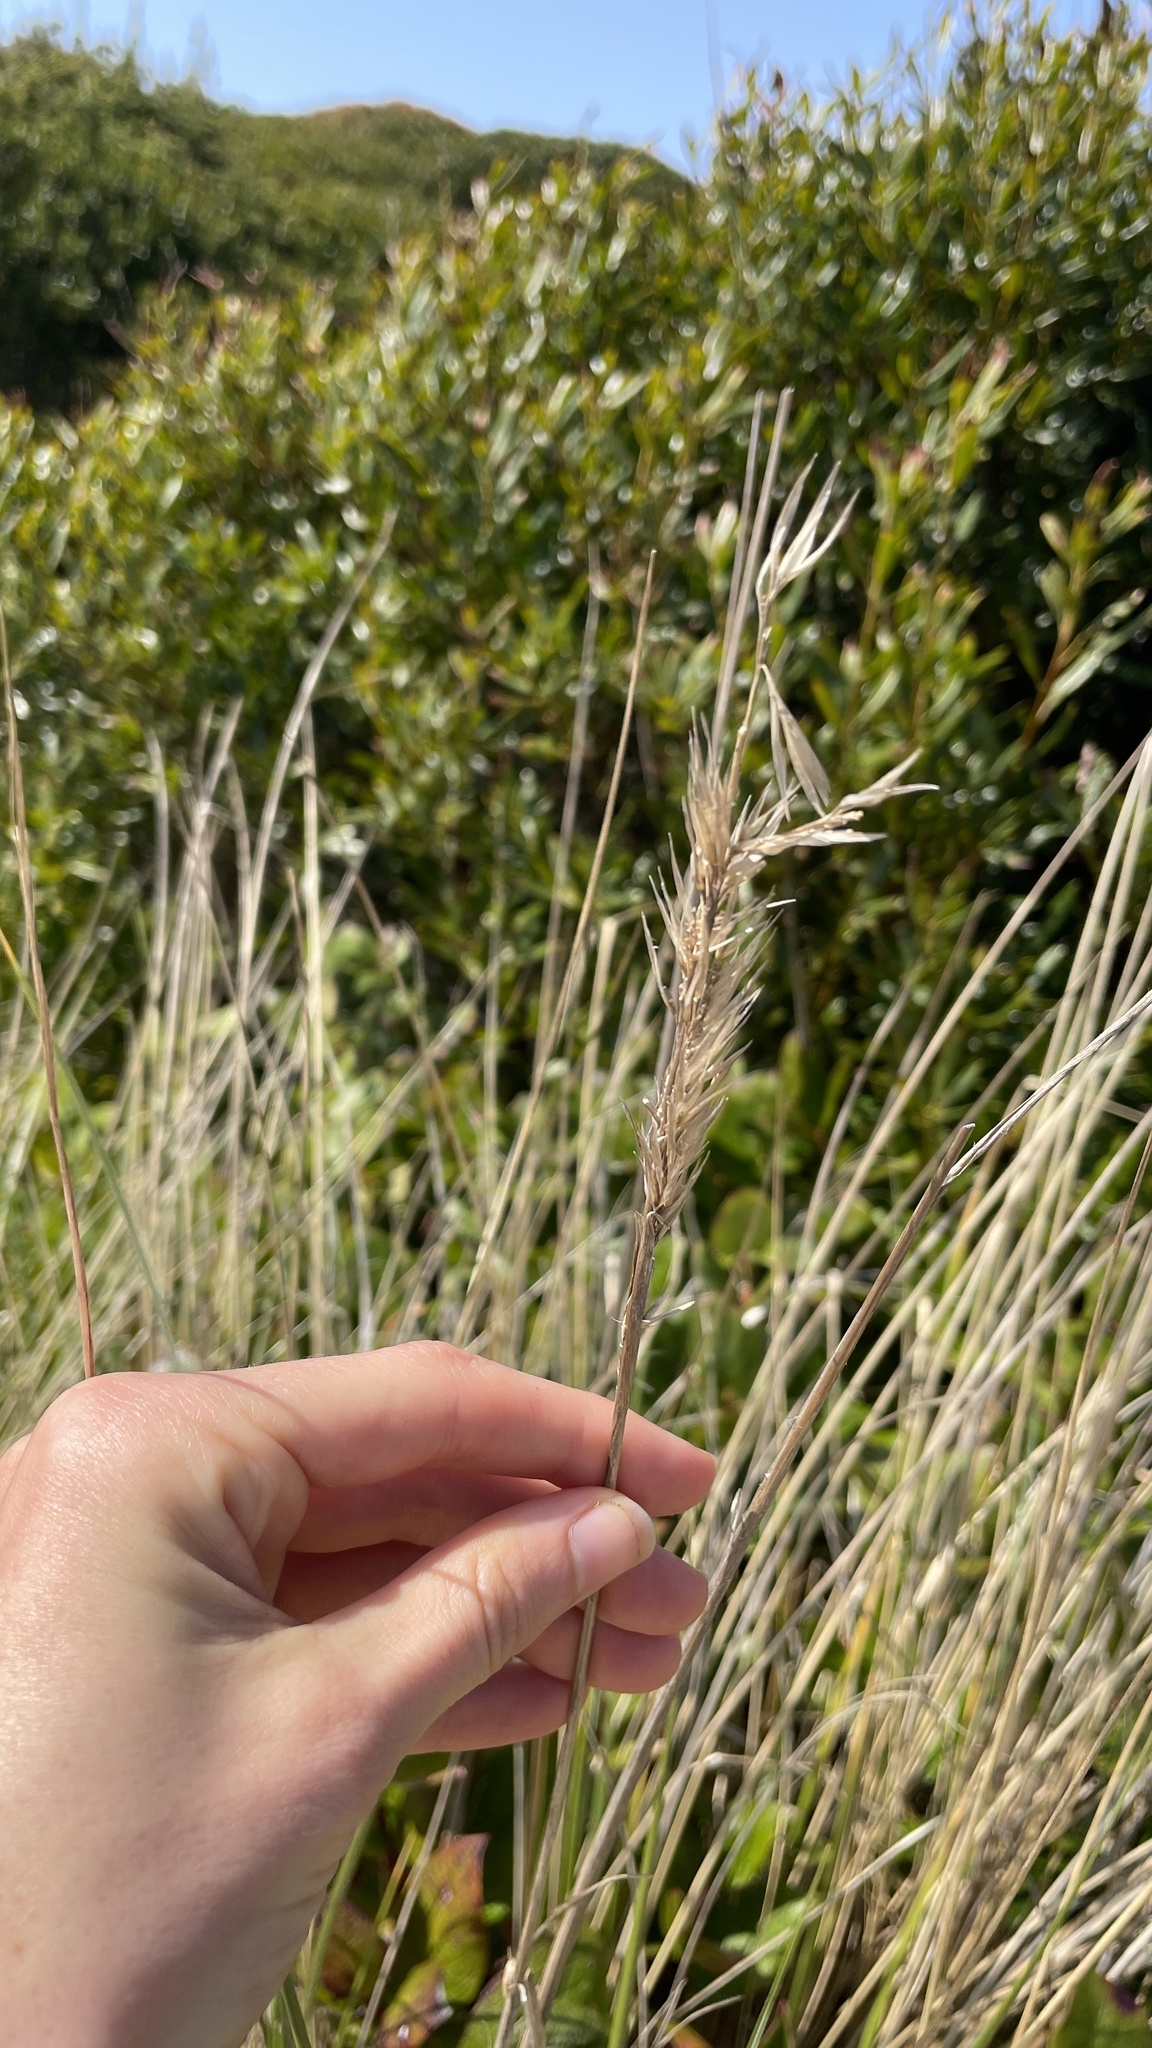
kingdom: Plantae
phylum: Tracheophyta
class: Liliopsida
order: Poales
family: Poaceae
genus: Calamagrostis
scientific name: Calamagrostis arenaria
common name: European beachgrass
